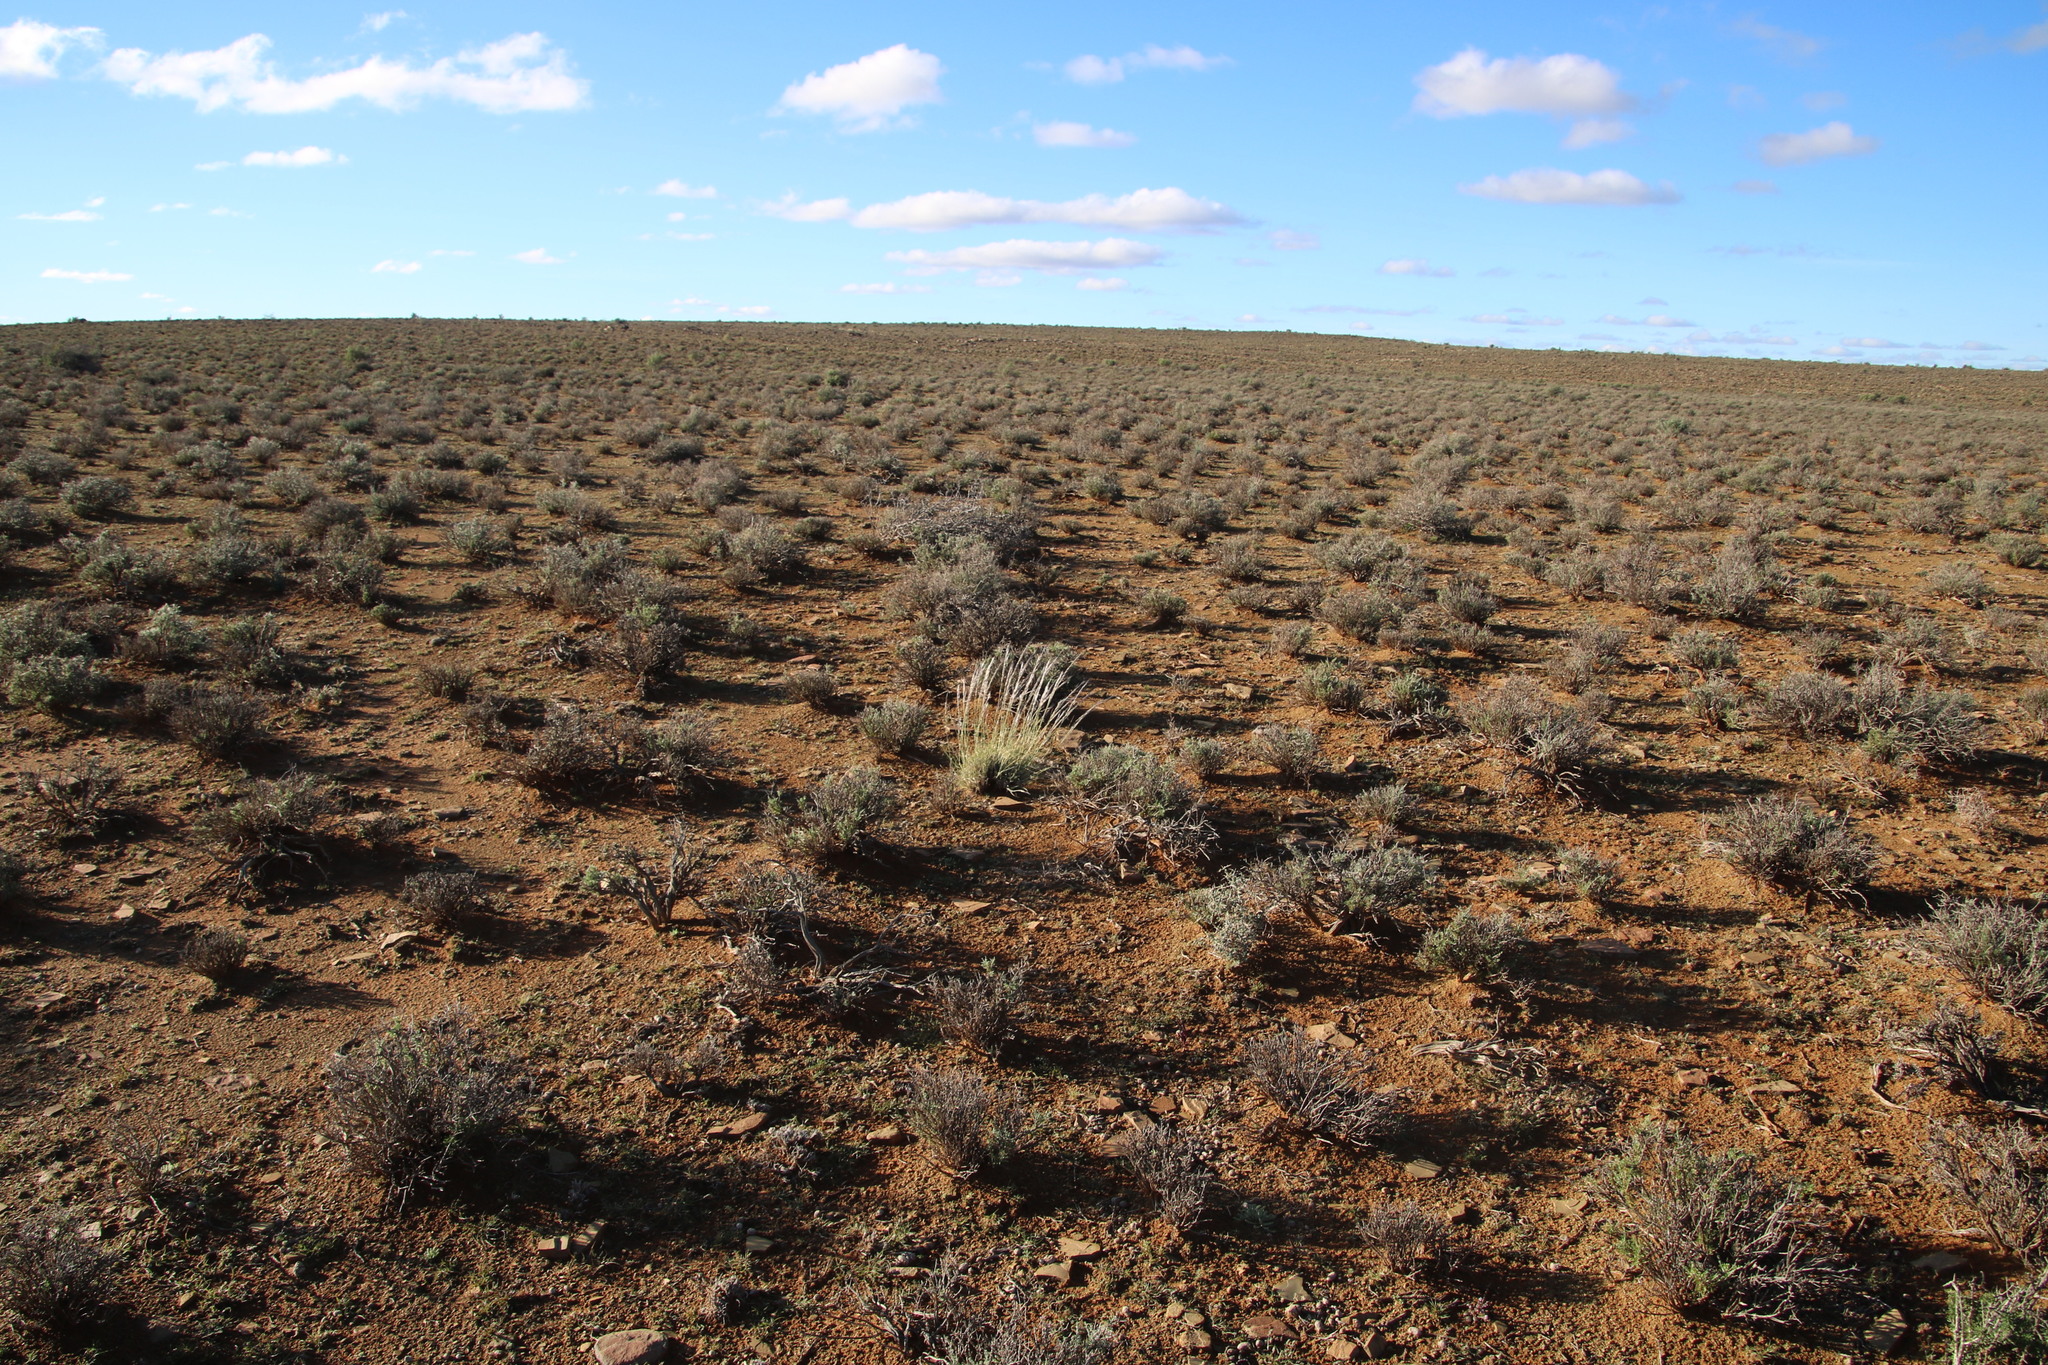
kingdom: Plantae
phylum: Tracheophyta
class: Liliopsida
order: Poales
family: Poaceae
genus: Stipagrostis
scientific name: Stipagrostis ciliata
